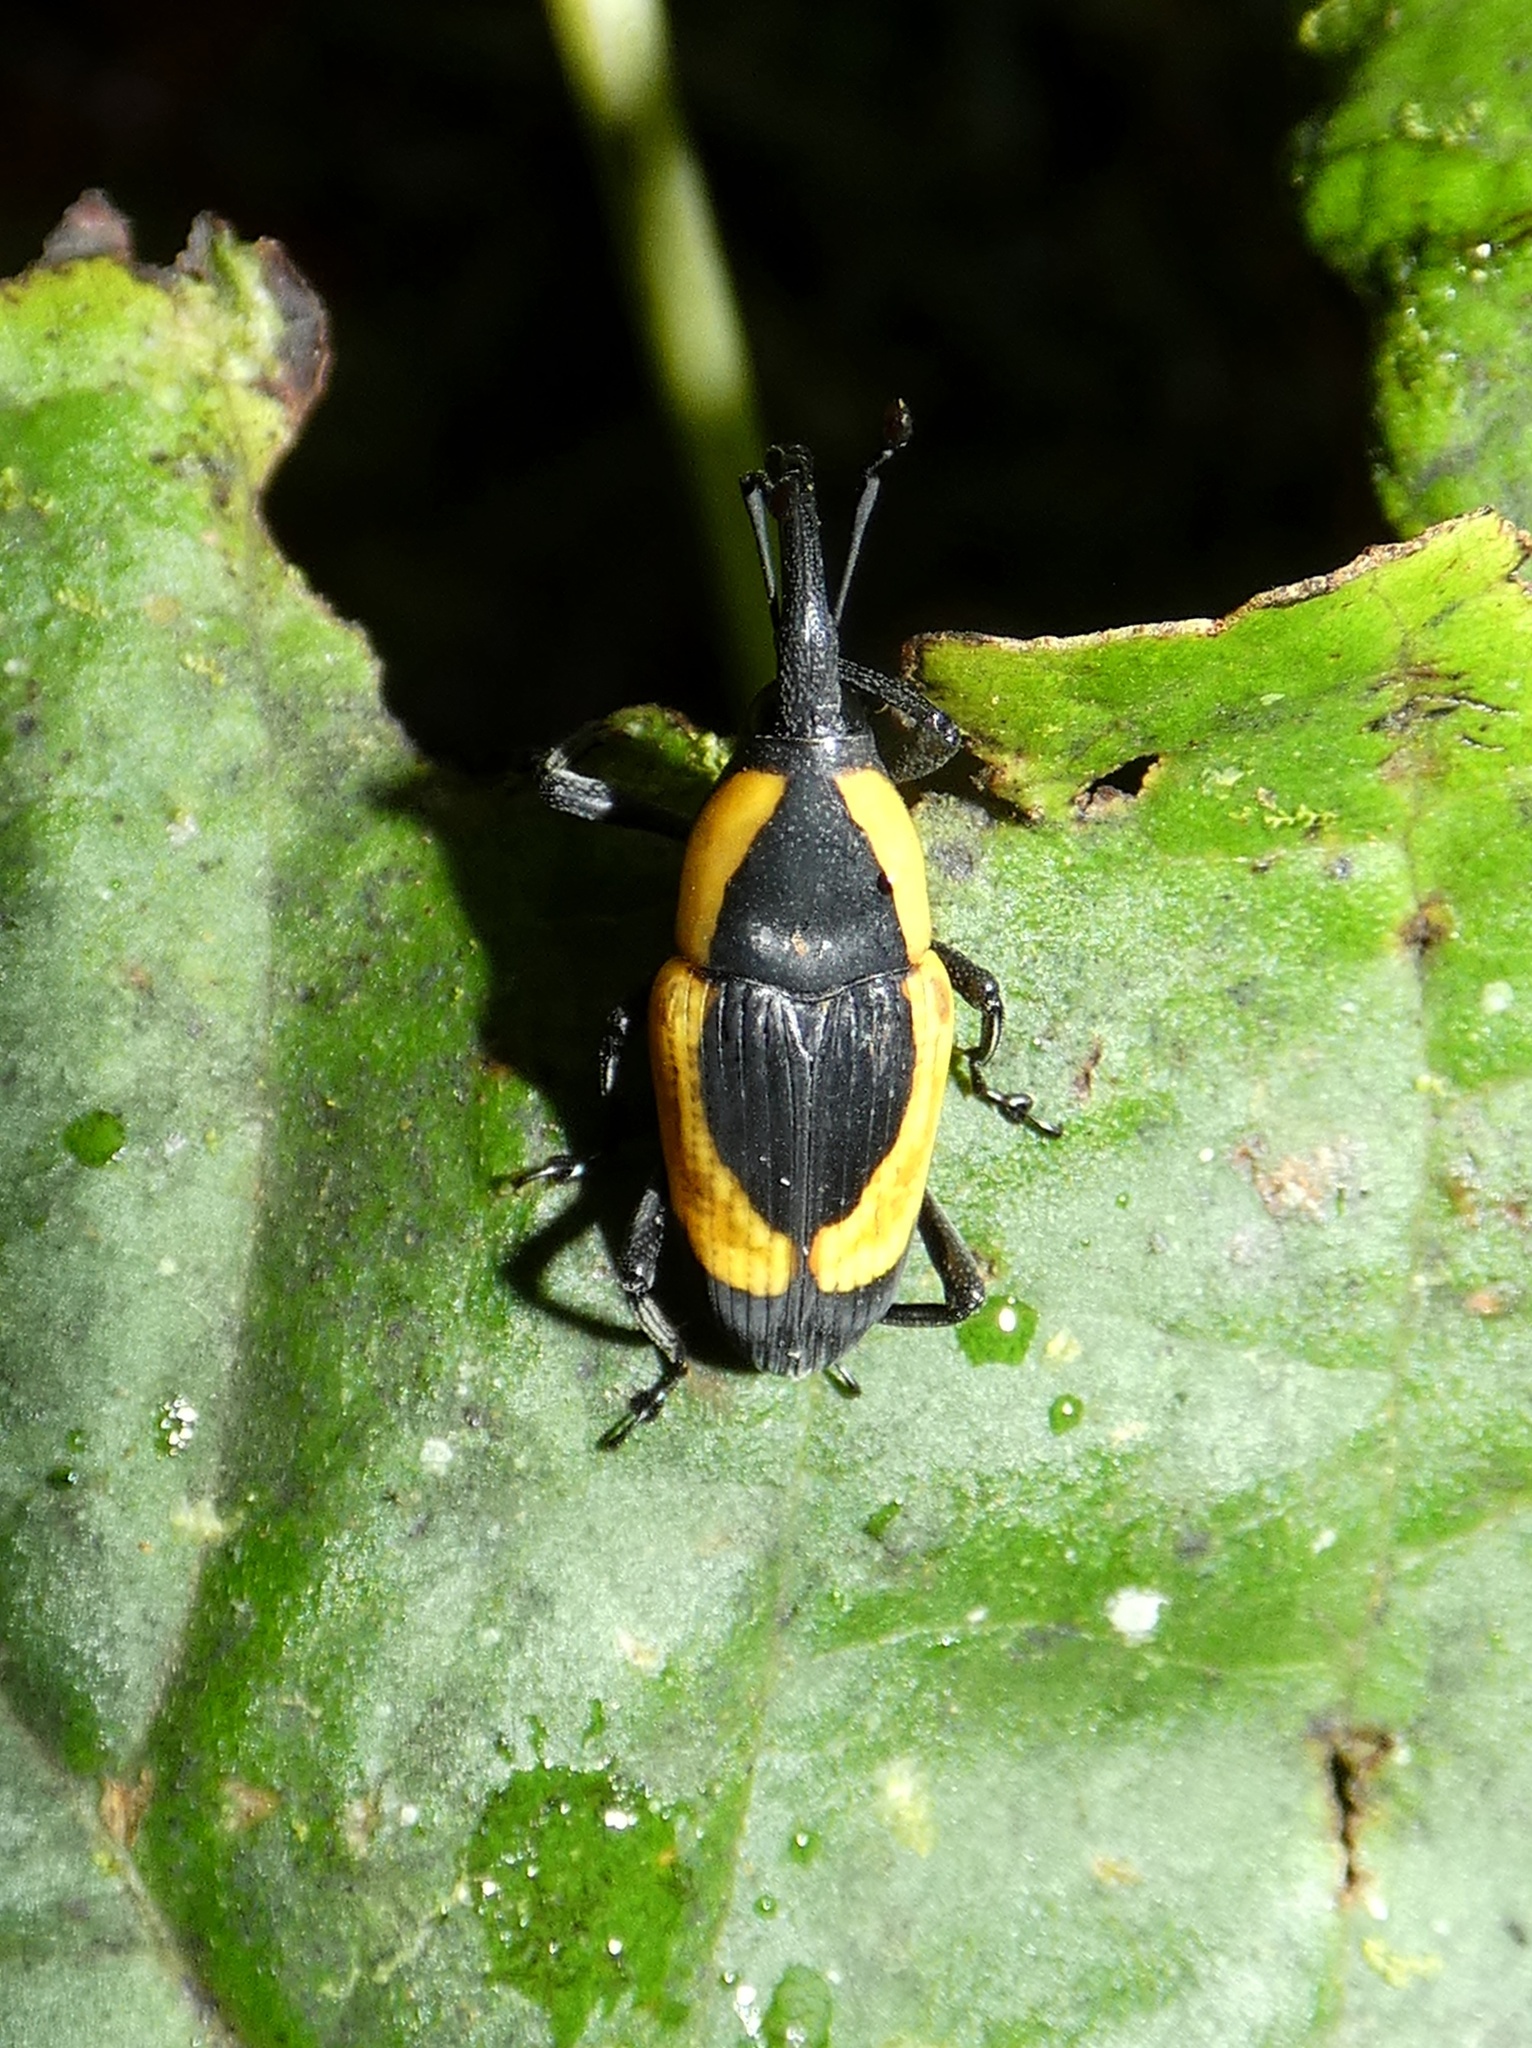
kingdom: Animalia
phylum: Arthropoda
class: Insecta
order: Coleoptera
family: Dryophthoridae
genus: Cactophagus
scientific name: Cactophagus circumdatus
